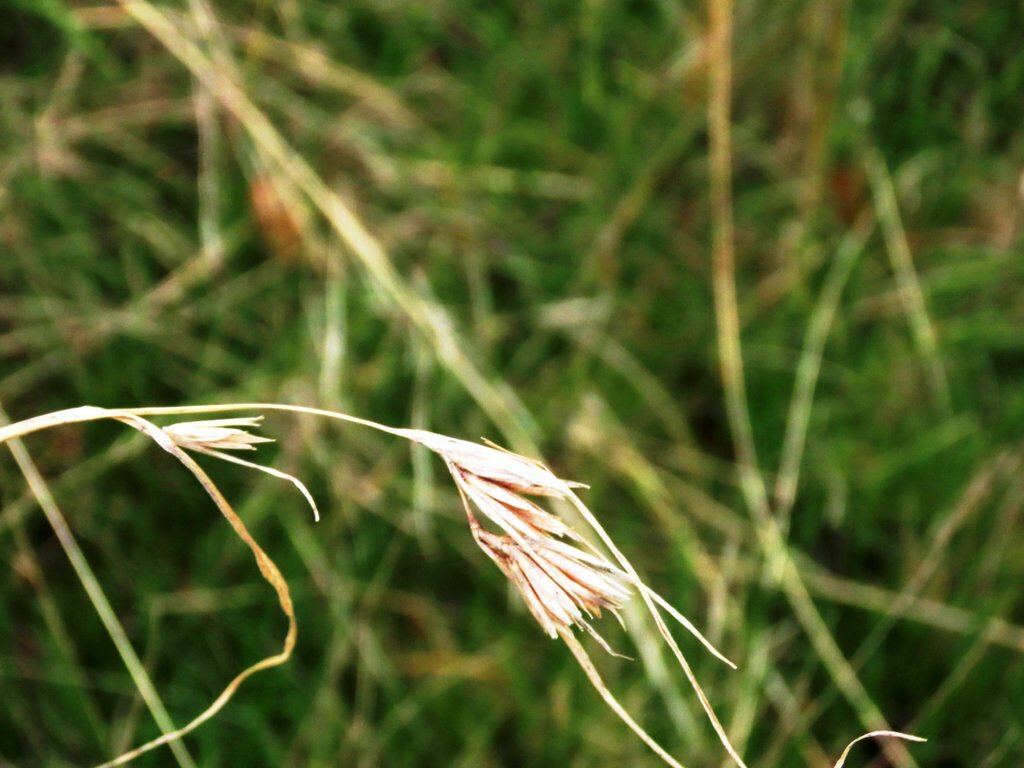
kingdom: Plantae
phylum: Tracheophyta
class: Liliopsida
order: Poales
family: Poaceae
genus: Themeda
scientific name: Themeda triandra
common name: Kangaroo grass
